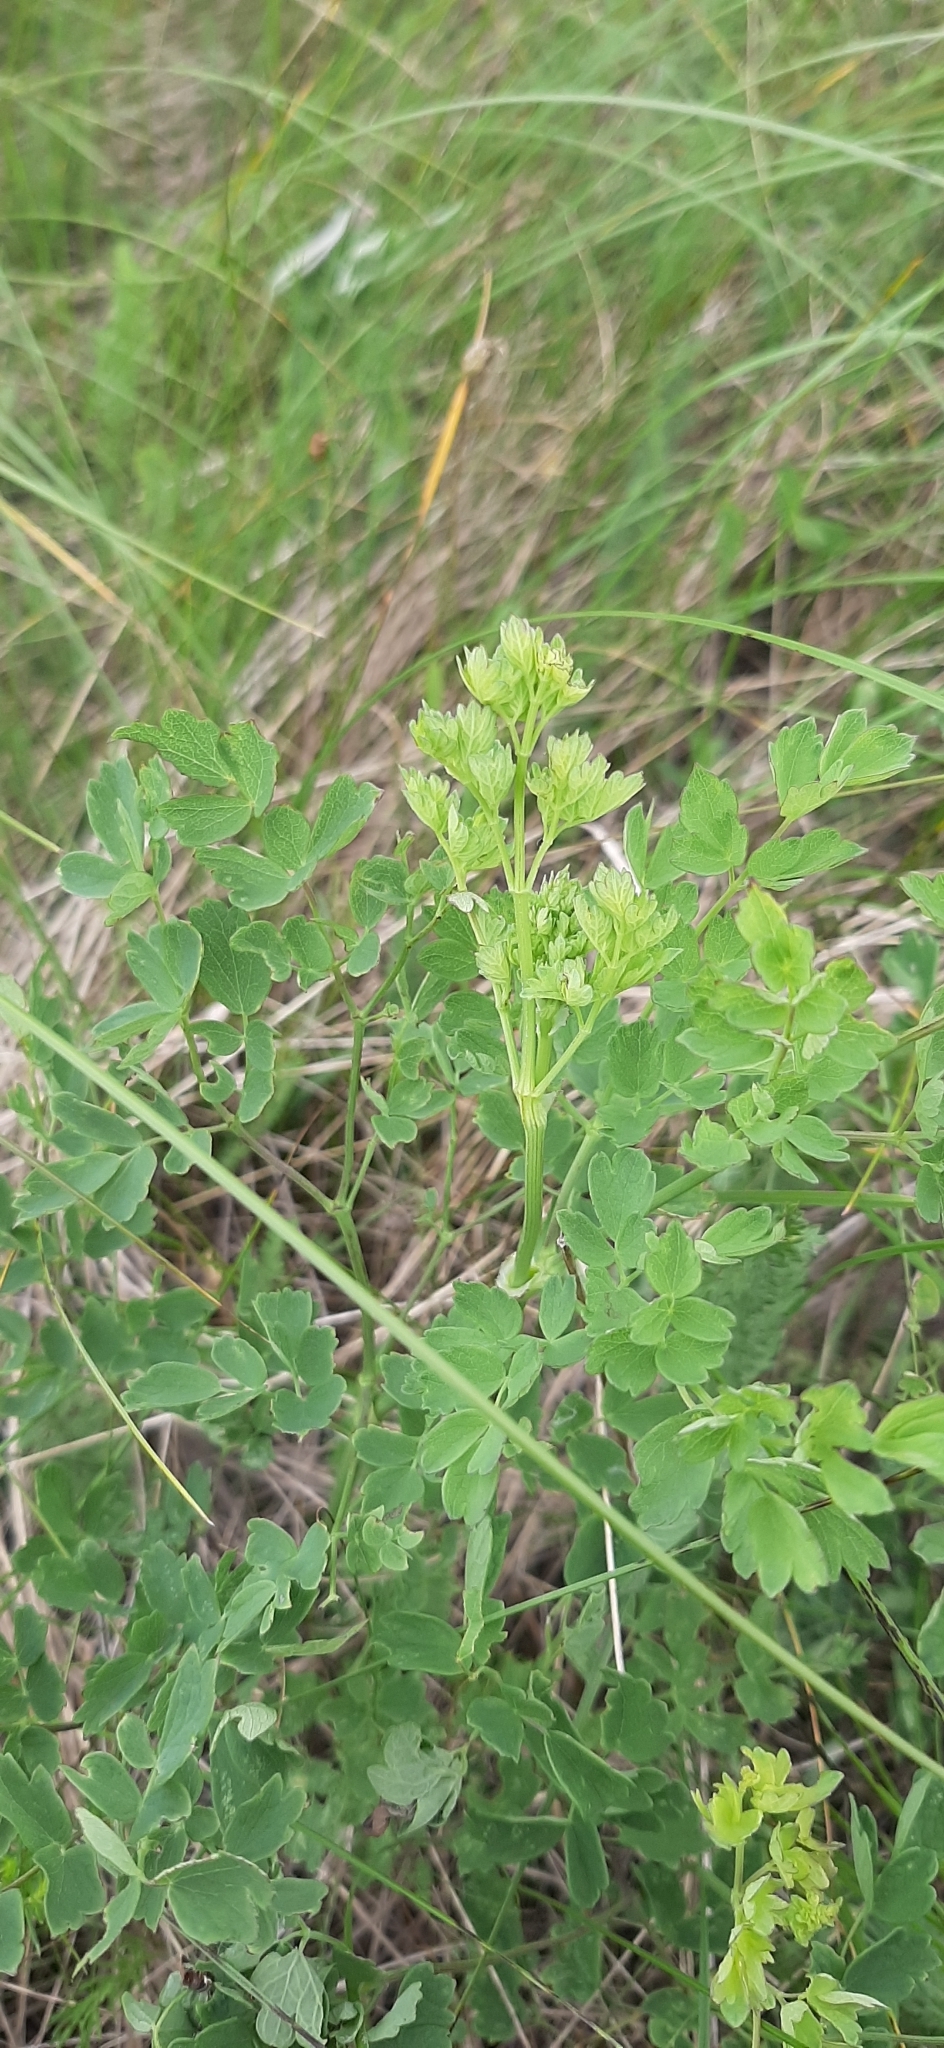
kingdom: Plantae
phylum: Tracheophyta
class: Magnoliopsida
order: Ranunculales
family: Ranunculaceae
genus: Thalictrum
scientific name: Thalictrum minus
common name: Lesser meadow-rue
